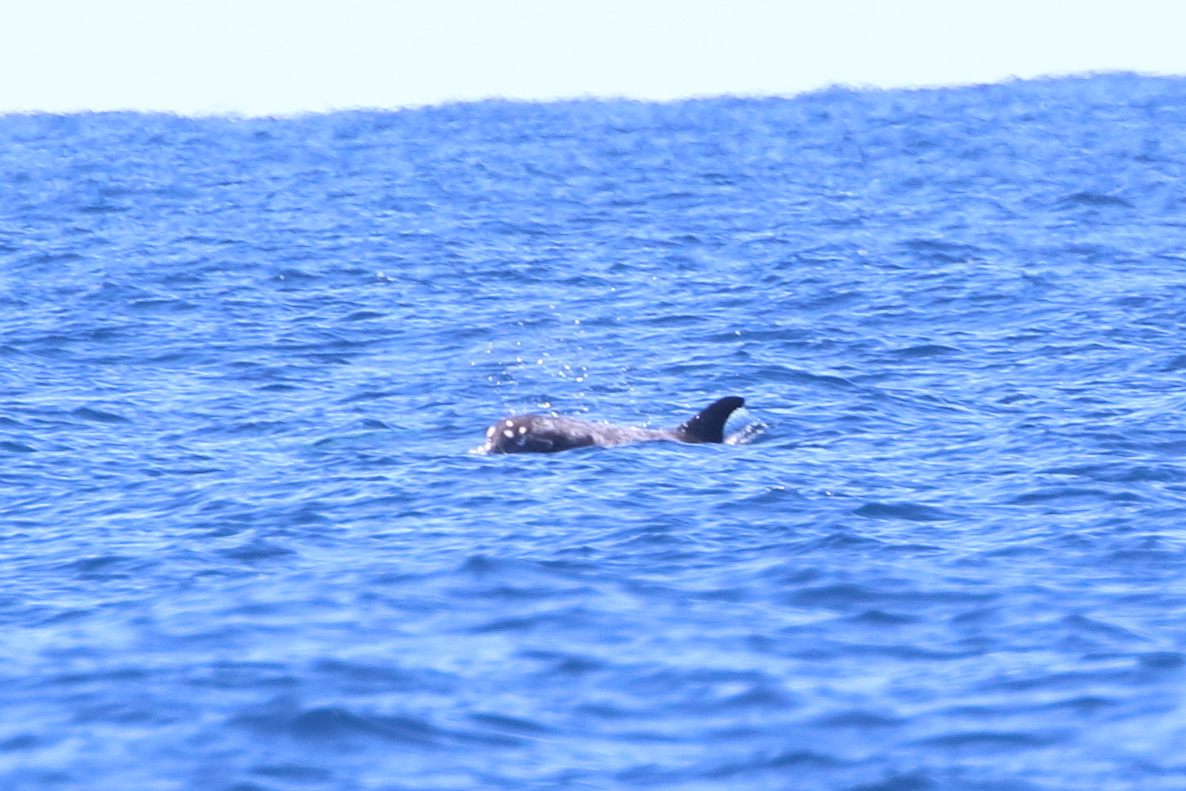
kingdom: Animalia
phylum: Chordata
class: Mammalia
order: Cetacea
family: Delphinidae
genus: Grampus
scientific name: Grampus griseus
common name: Risso's dolphin
